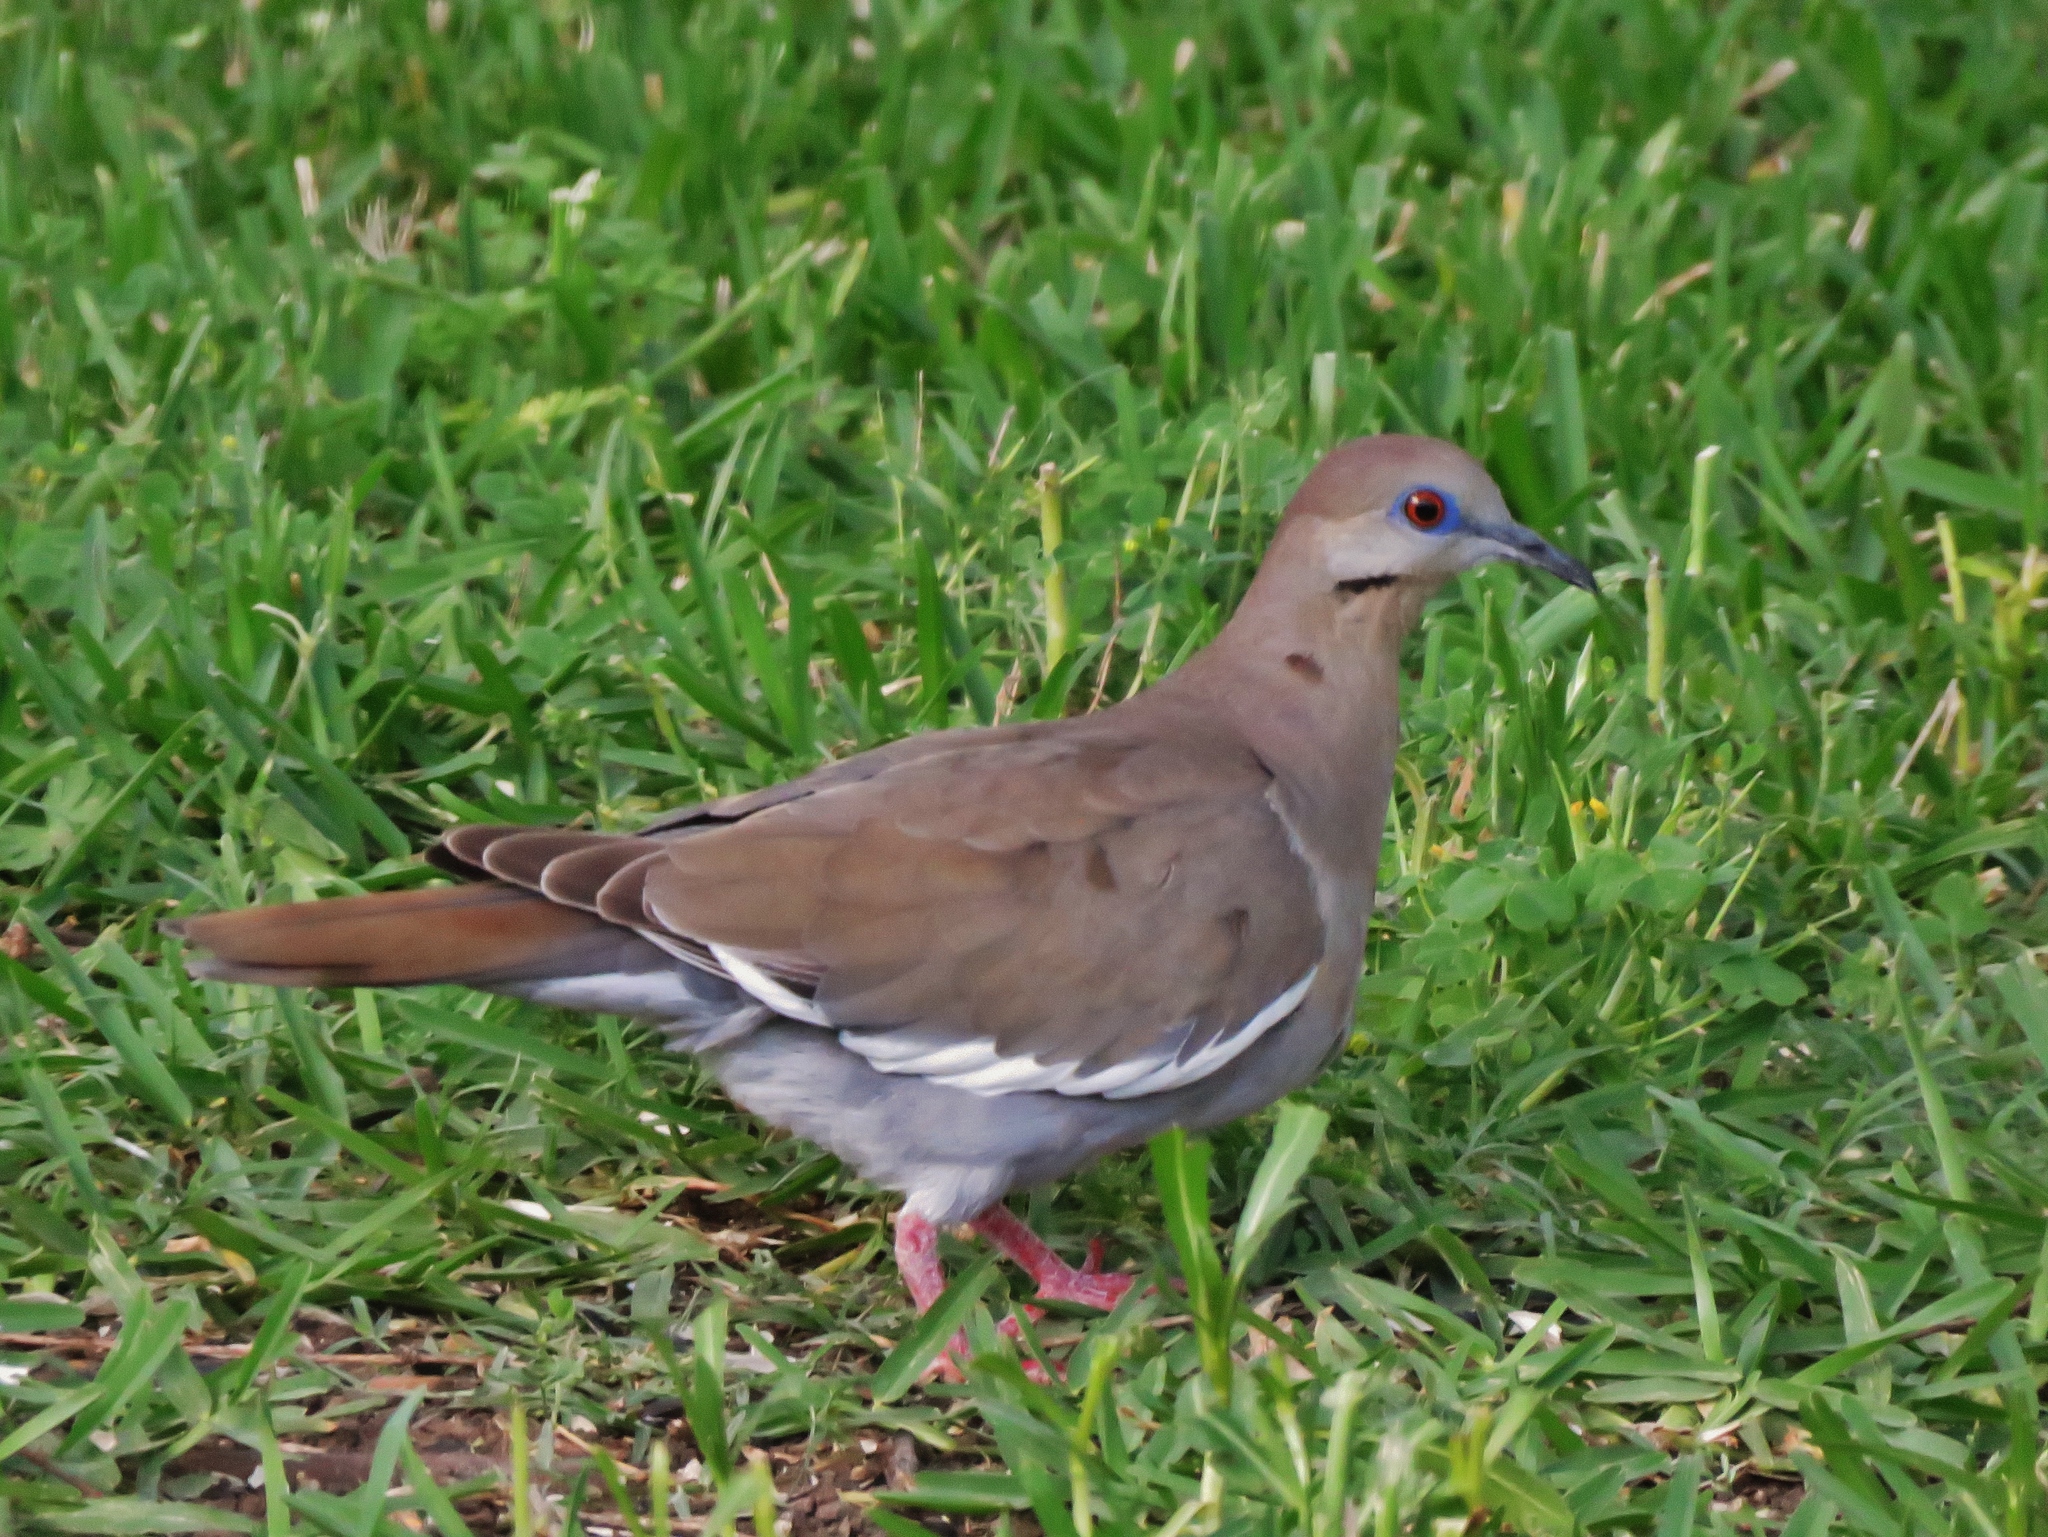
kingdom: Animalia
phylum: Chordata
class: Aves
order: Columbiformes
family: Columbidae
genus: Zenaida
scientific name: Zenaida asiatica
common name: White-winged dove
